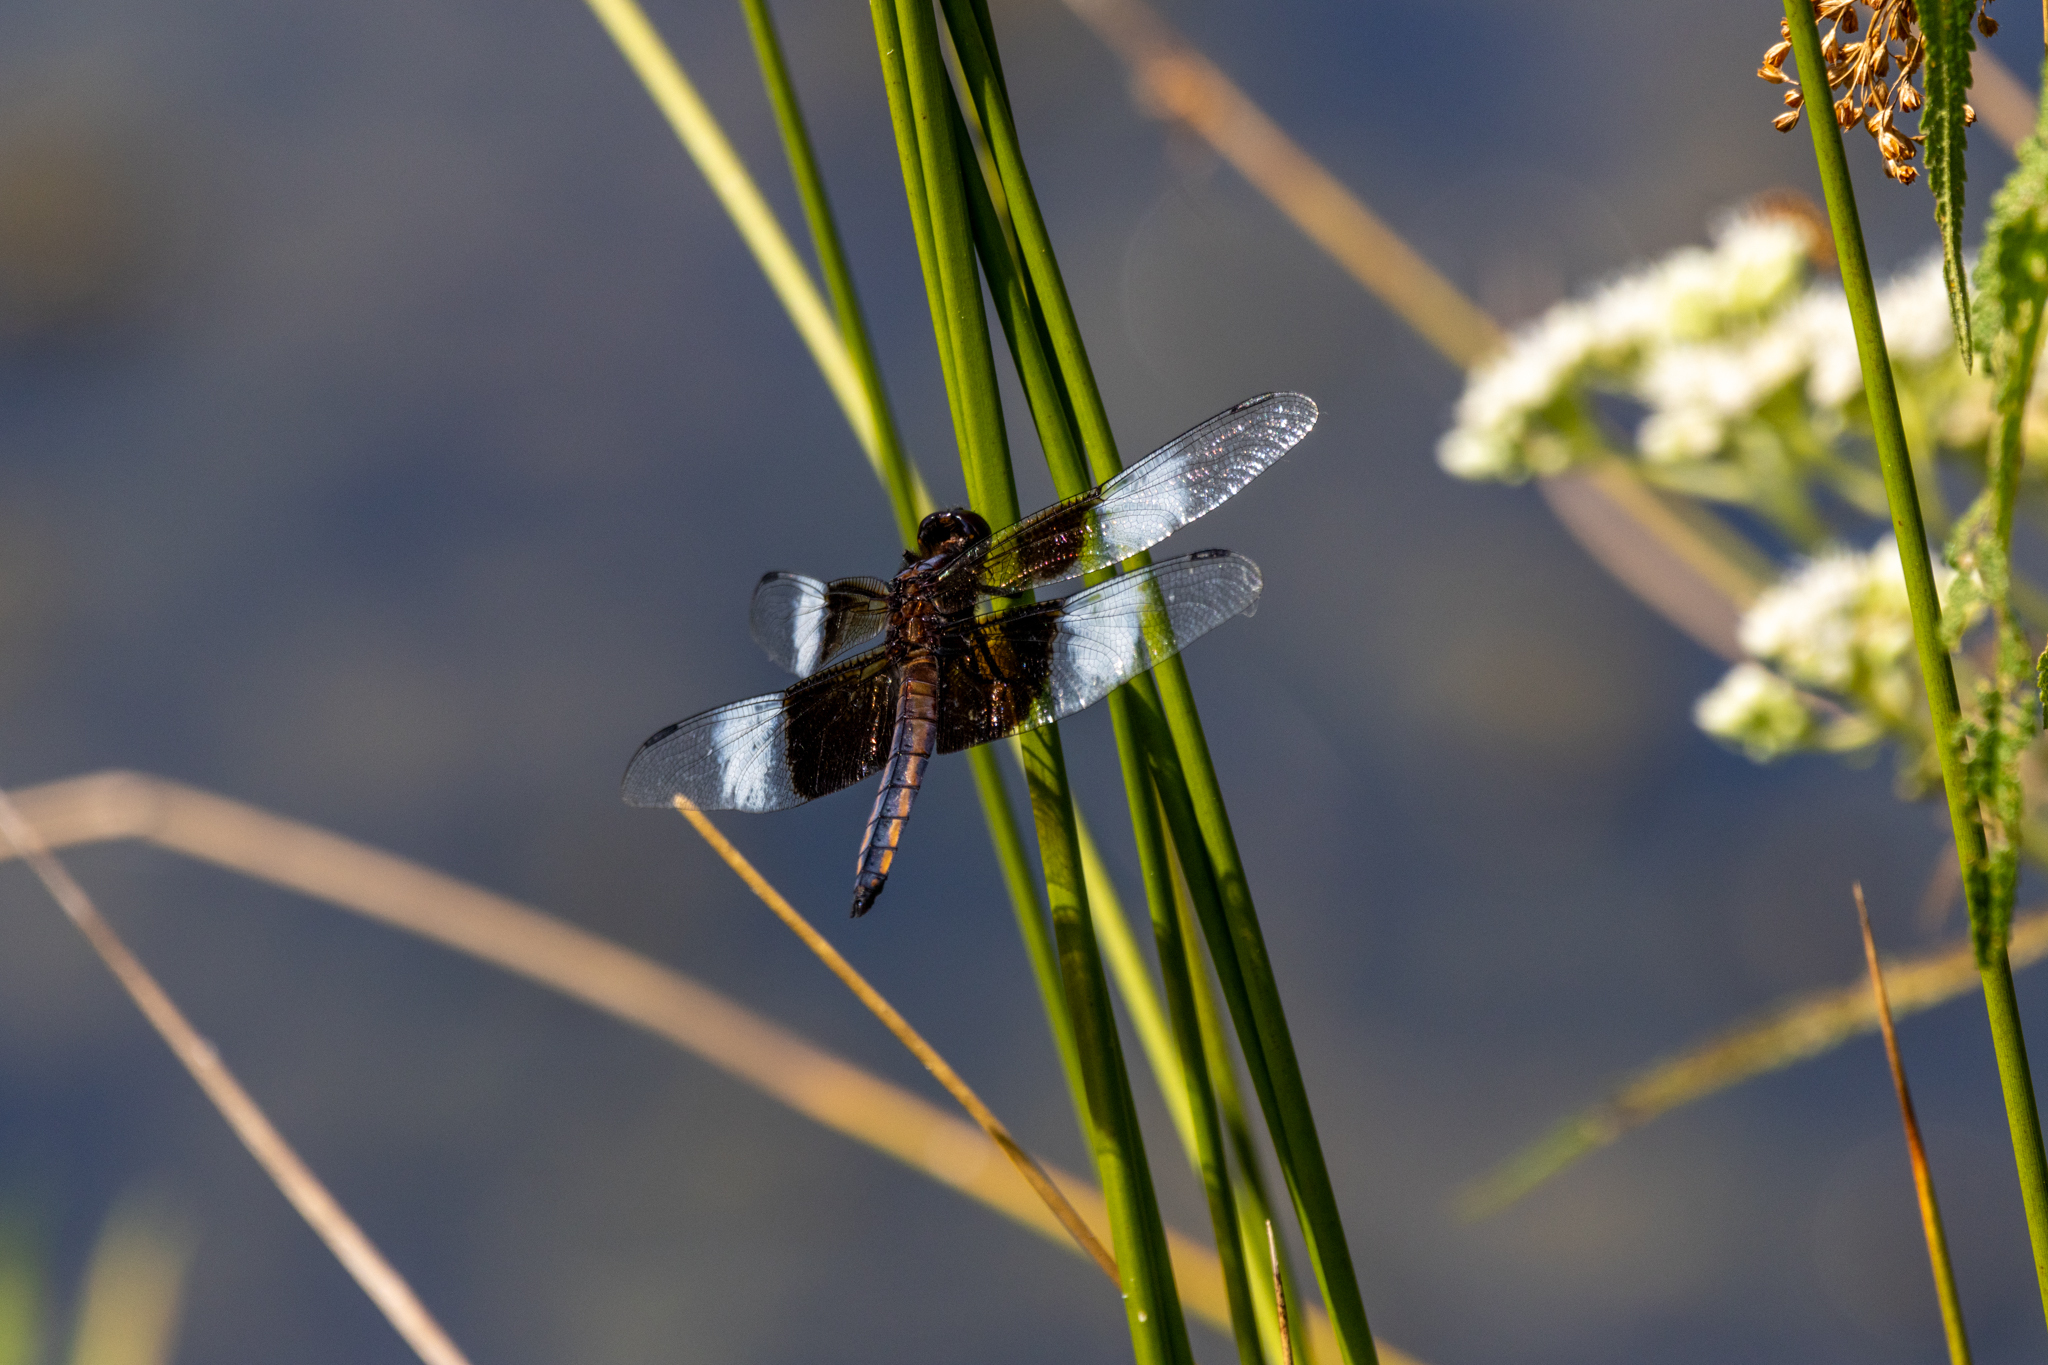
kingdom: Animalia
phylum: Arthropoda
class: Insecta
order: Odonata
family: Libellulidae
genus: Libellula
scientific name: Libellula luctuosa
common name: Widow skimmer
